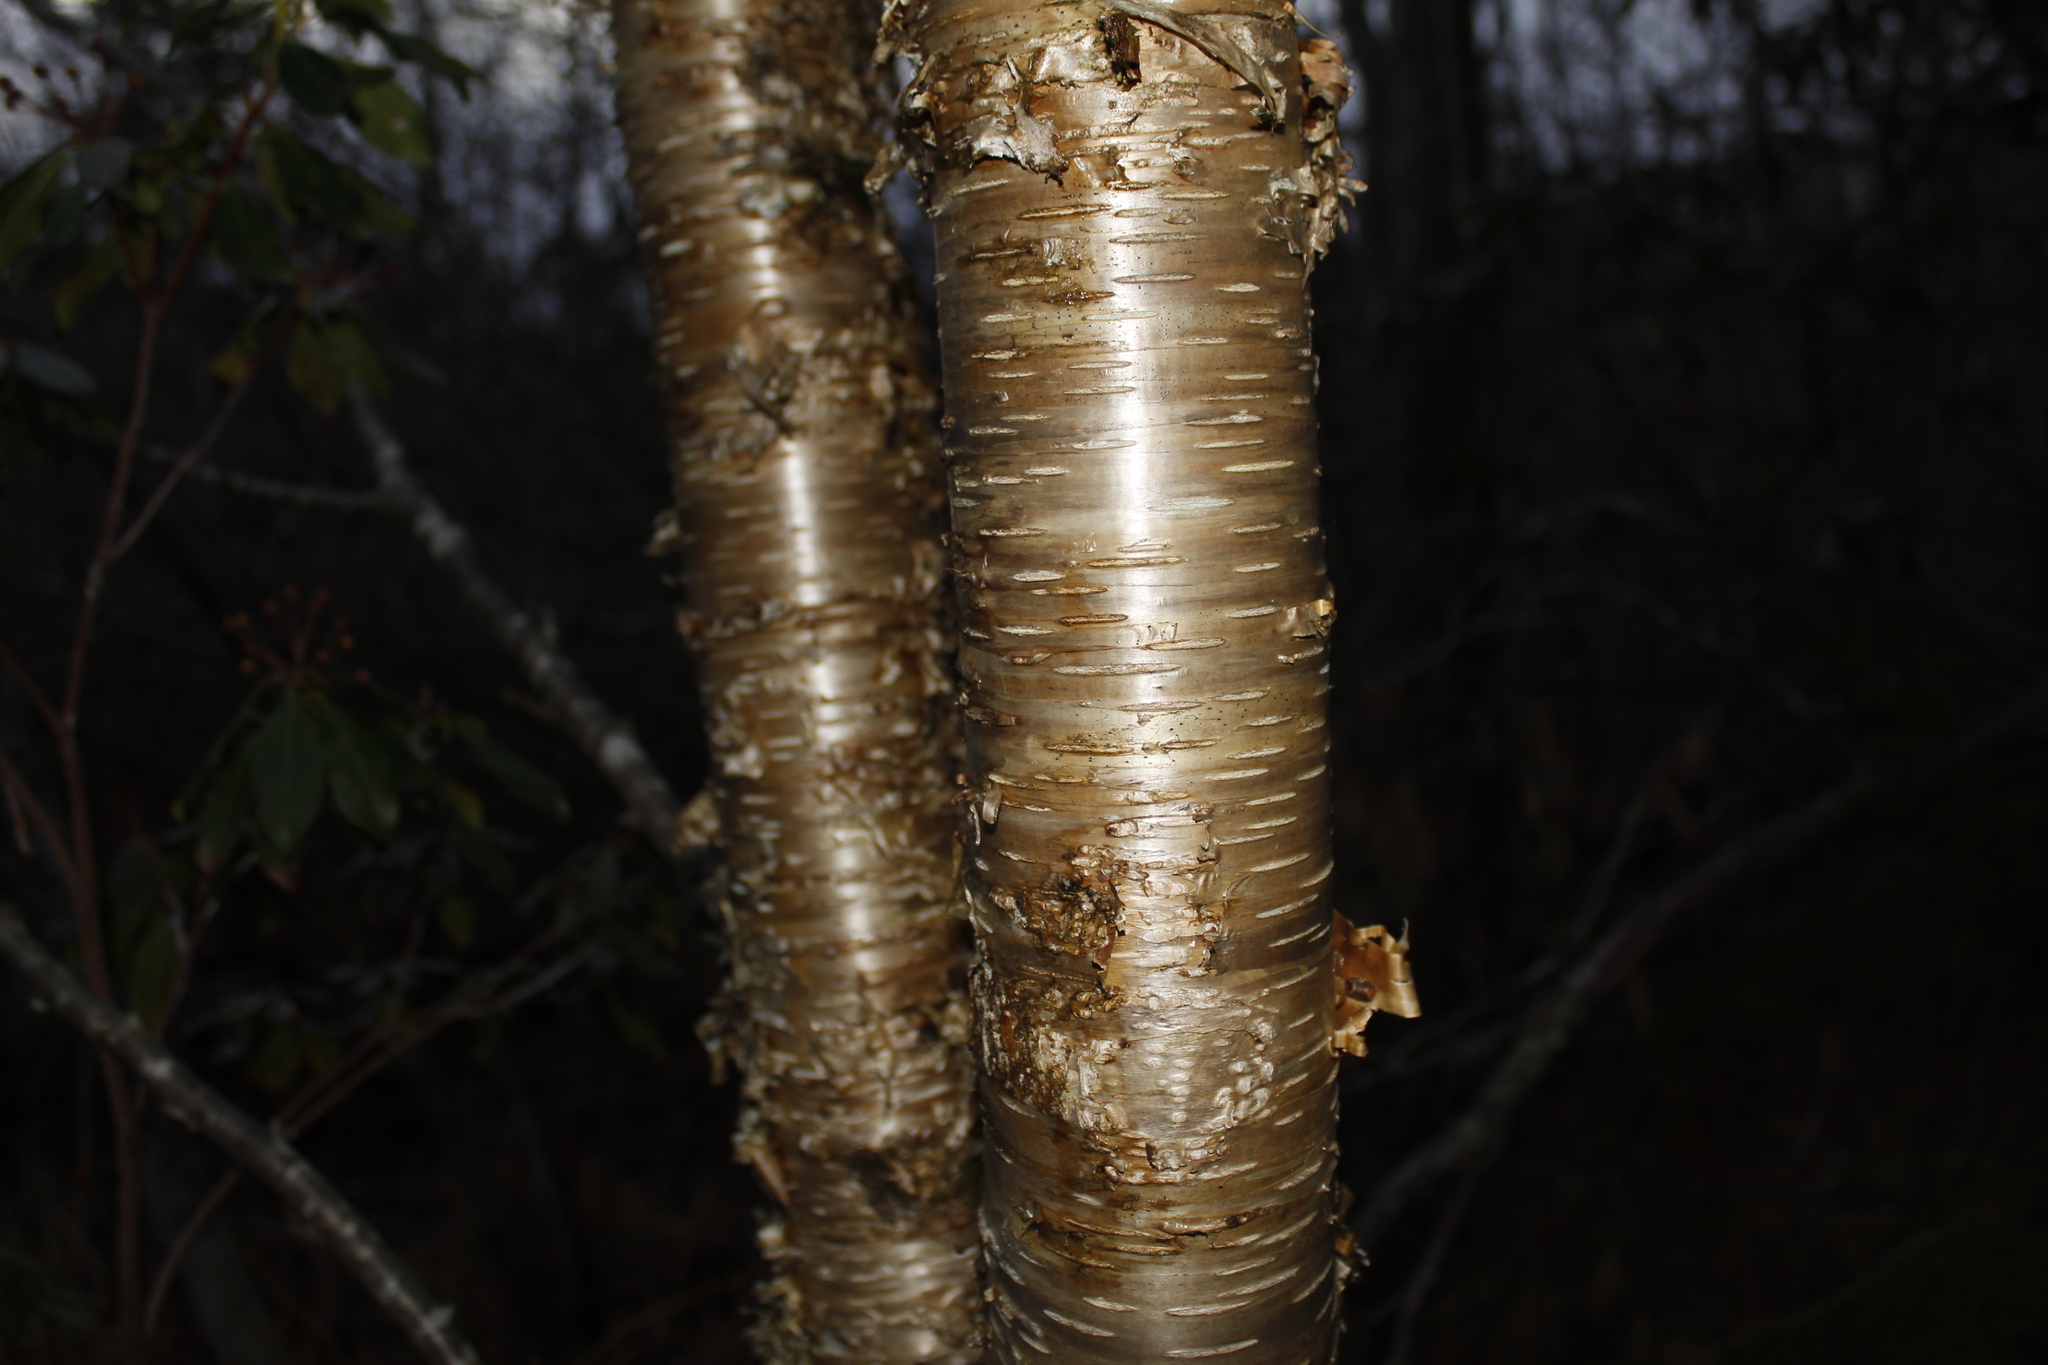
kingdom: Plantae
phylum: Tracheophyta
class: Magnoliopsida
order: Fagales
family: Betulaceae
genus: Betula
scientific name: Betula alleghaniensis
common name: Yellow birch
